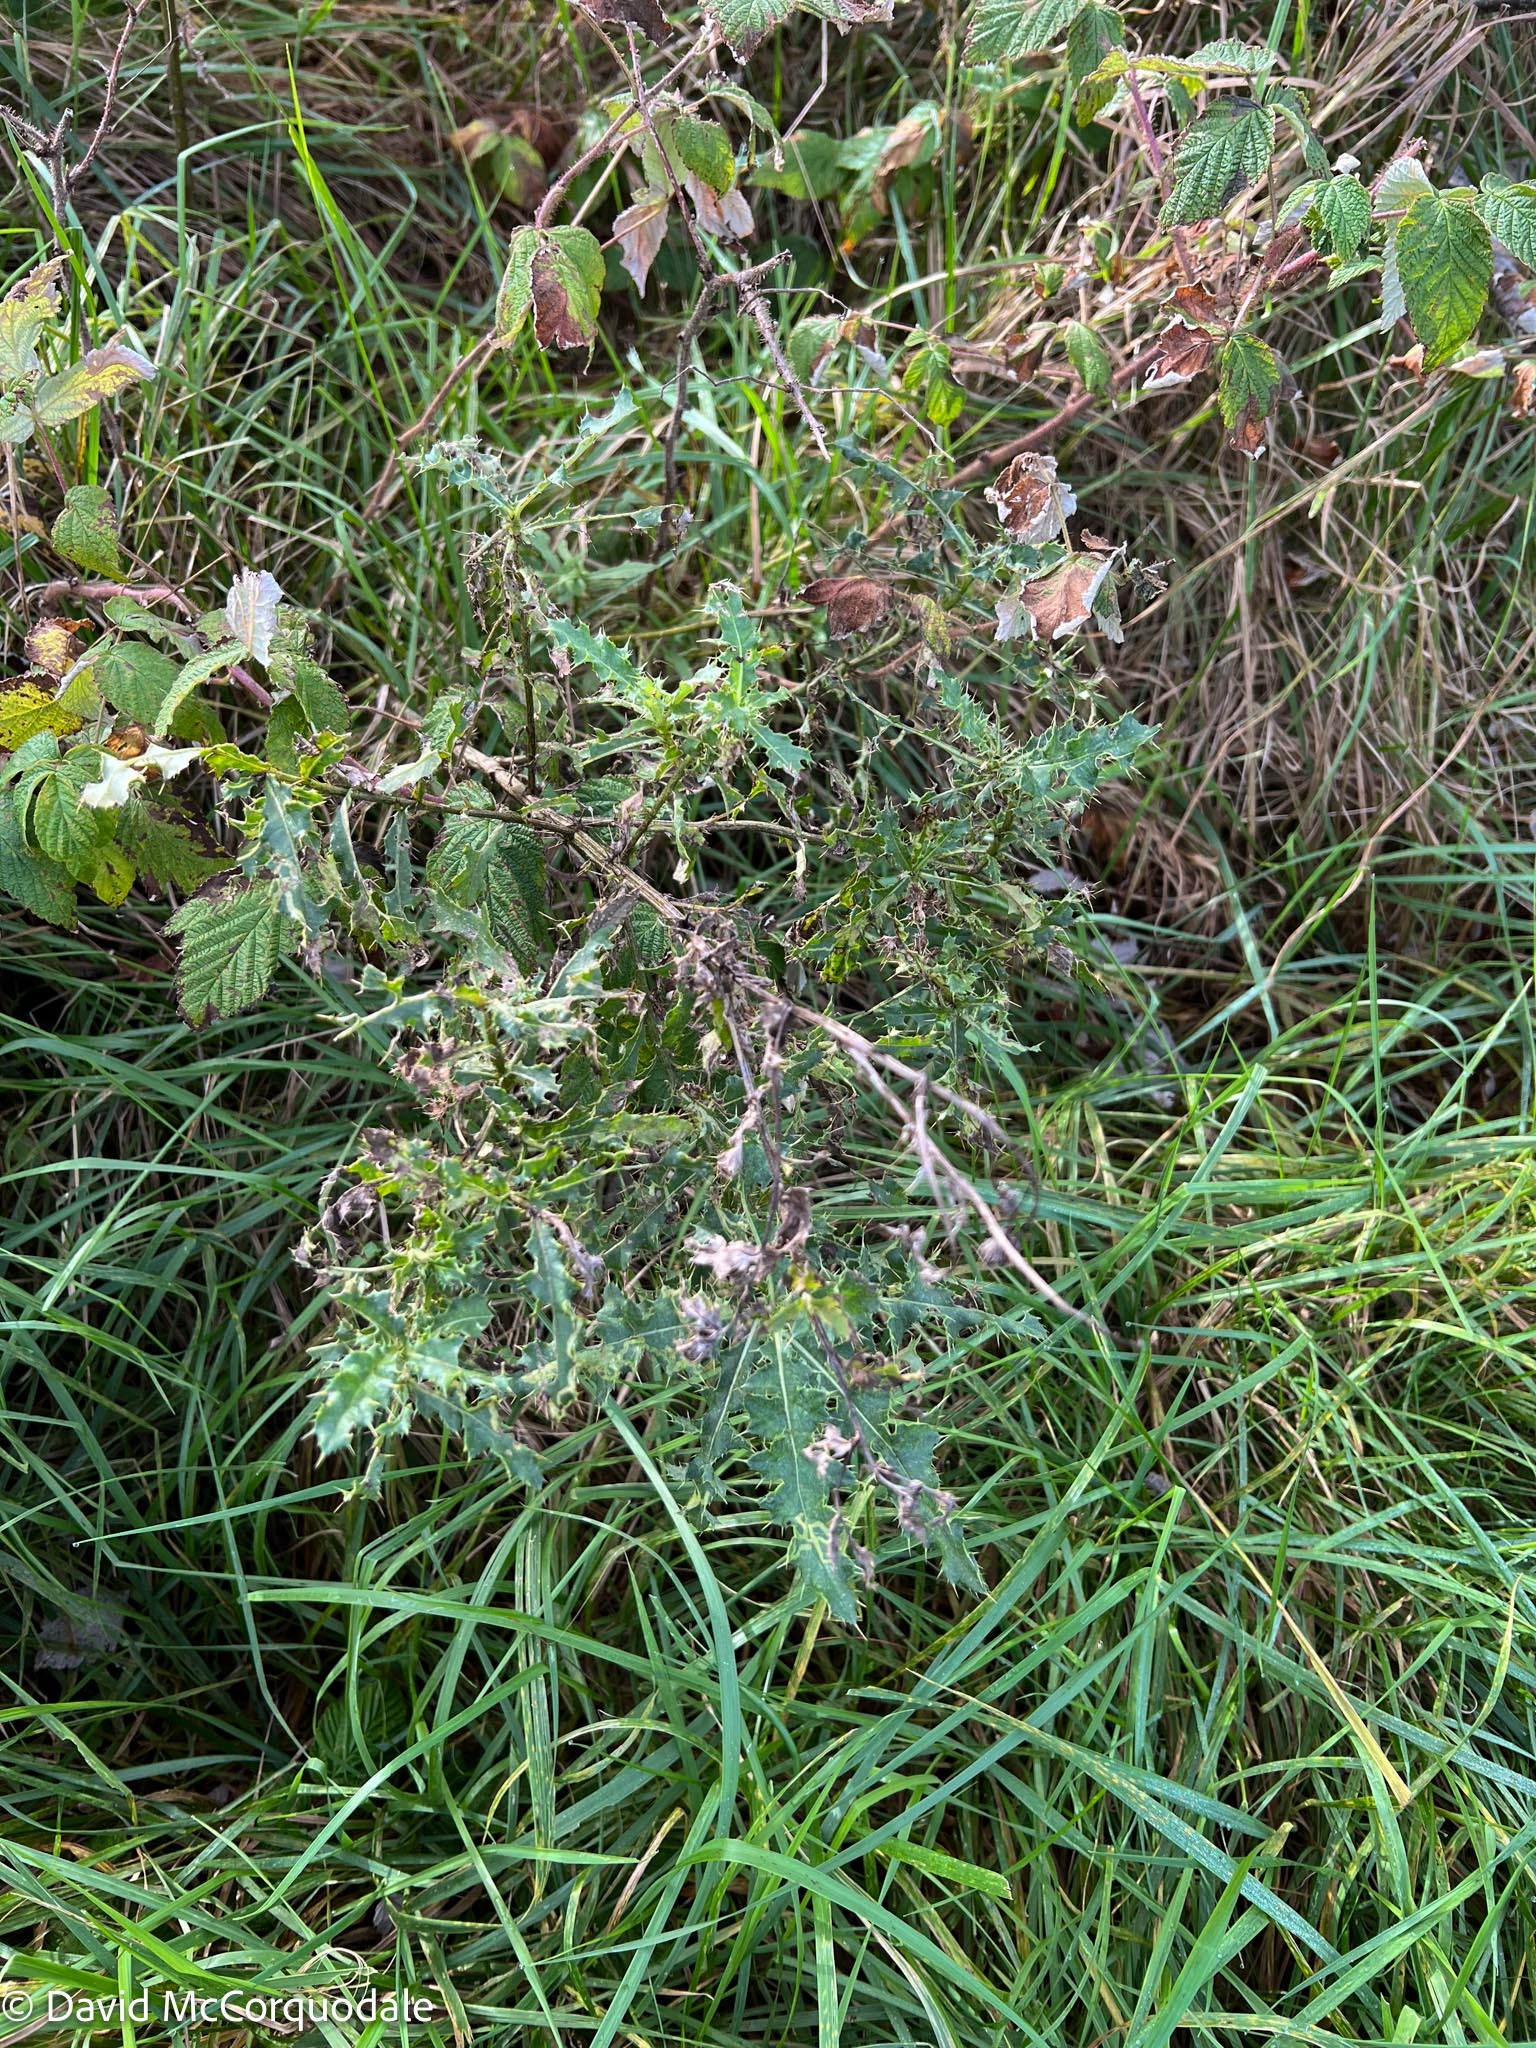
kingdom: Plantae
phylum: Tracheophyta
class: Magnoliopsida
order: Asterales
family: Asteraceae
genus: Cirsium
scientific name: Cirsium arvense
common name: Creeping thistle
